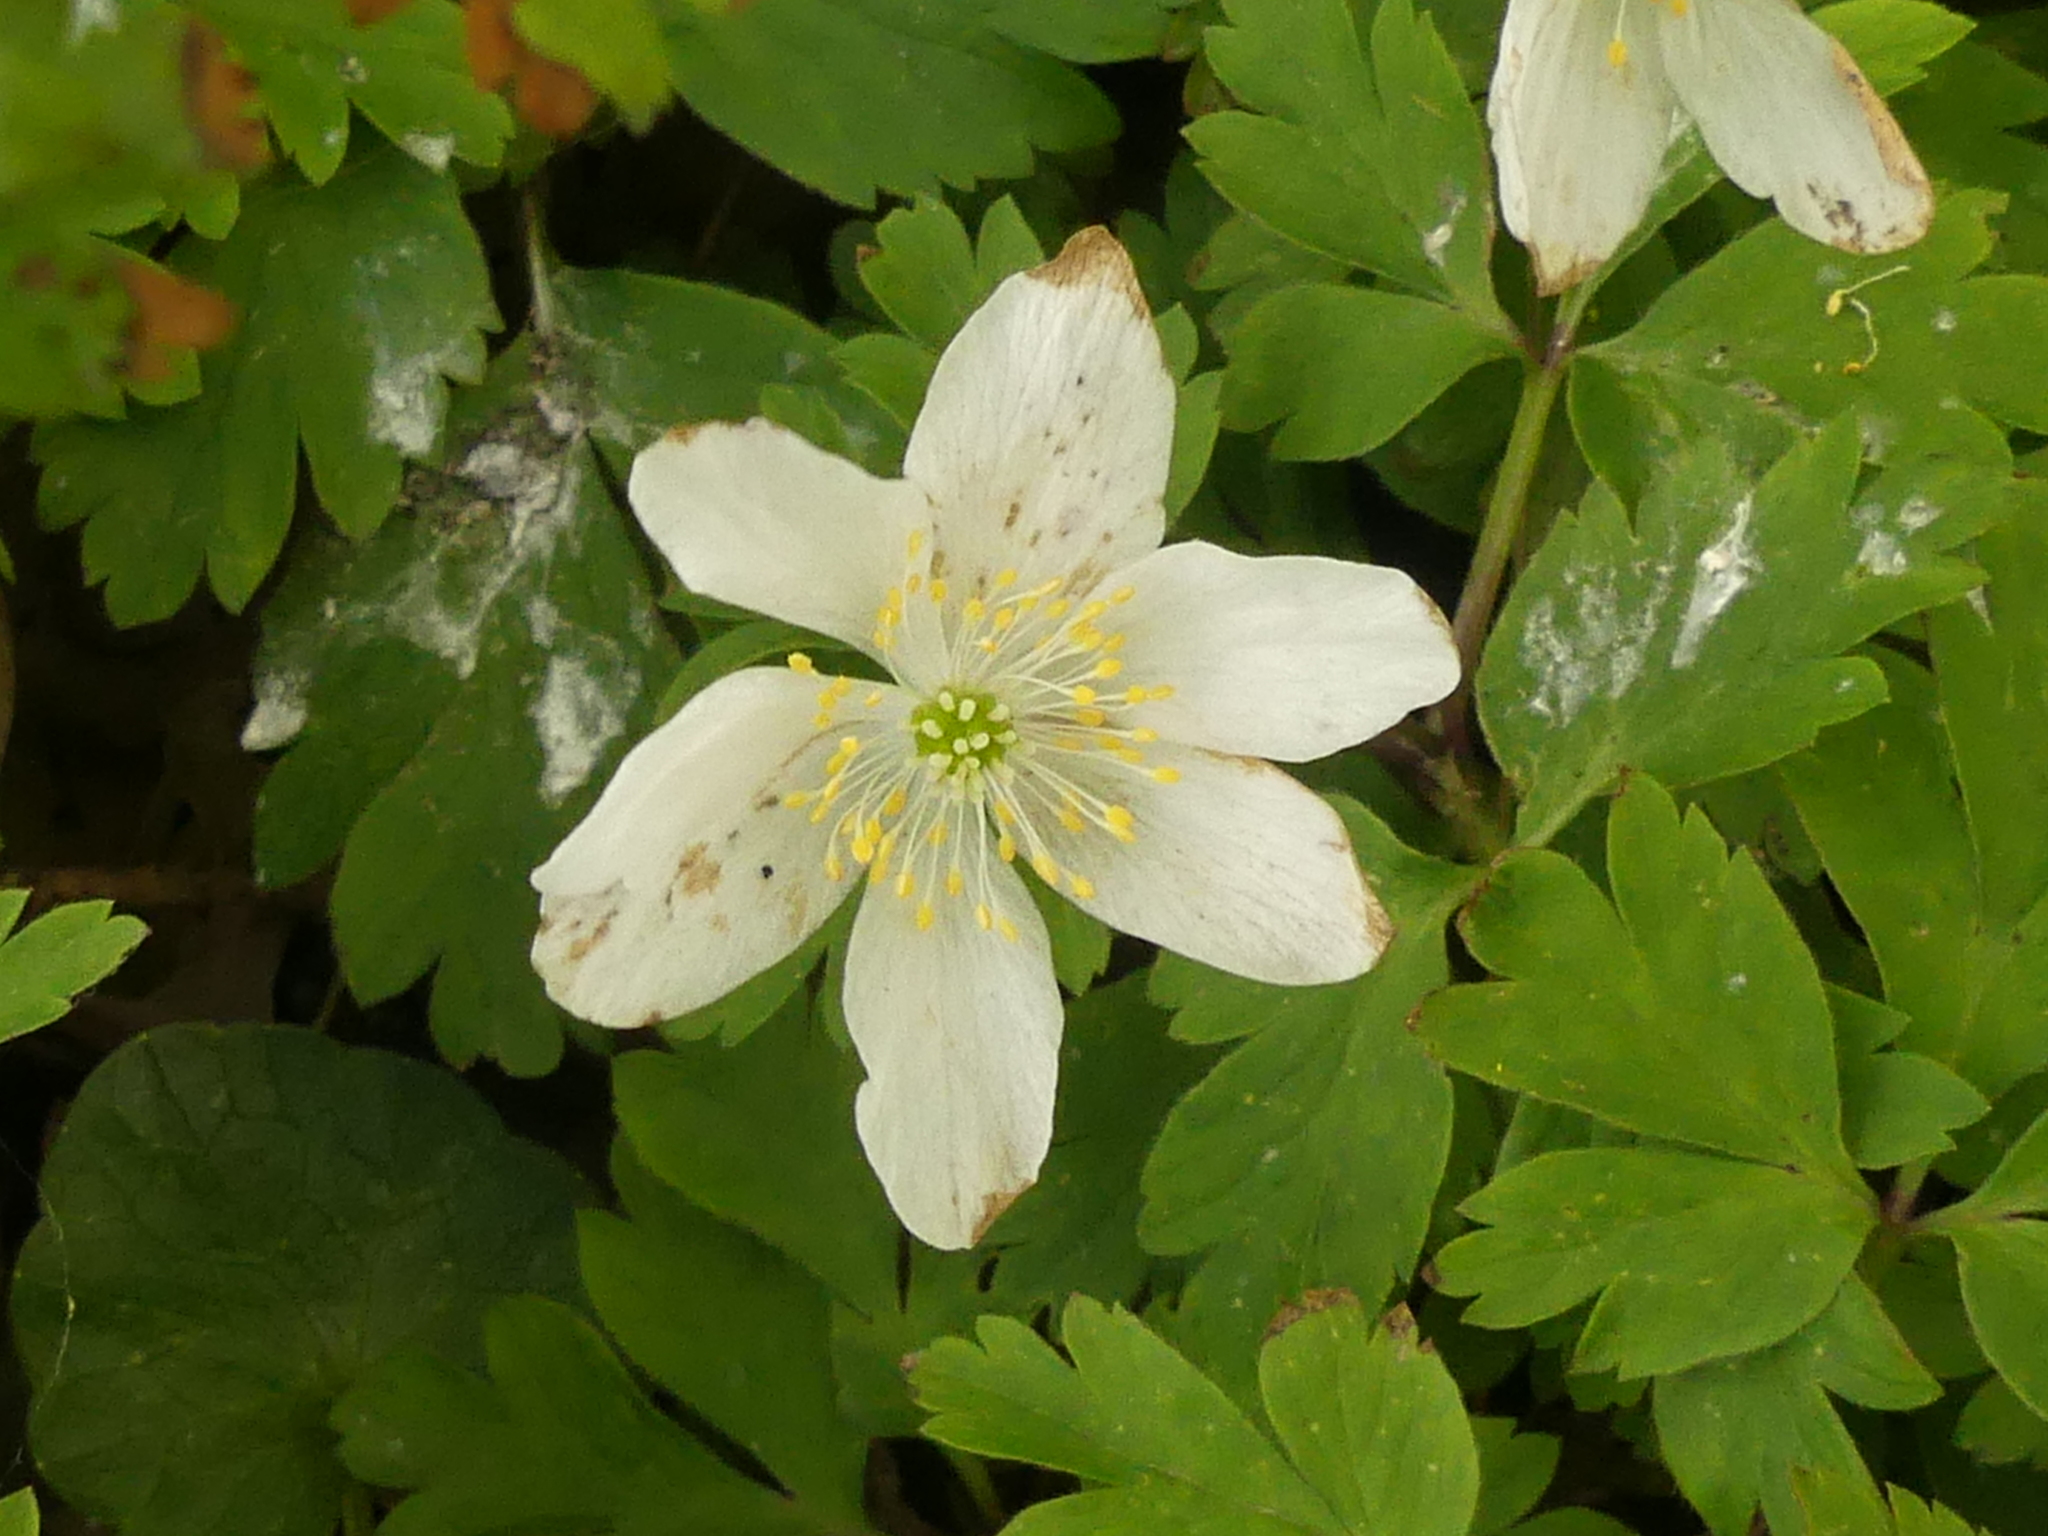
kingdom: Plantae
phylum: Tracheophyta
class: Magnoliopsida
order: Ranunculales
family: Ranunculaceae
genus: Anemone
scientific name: Anemone nemorosa
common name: Wood anemone
